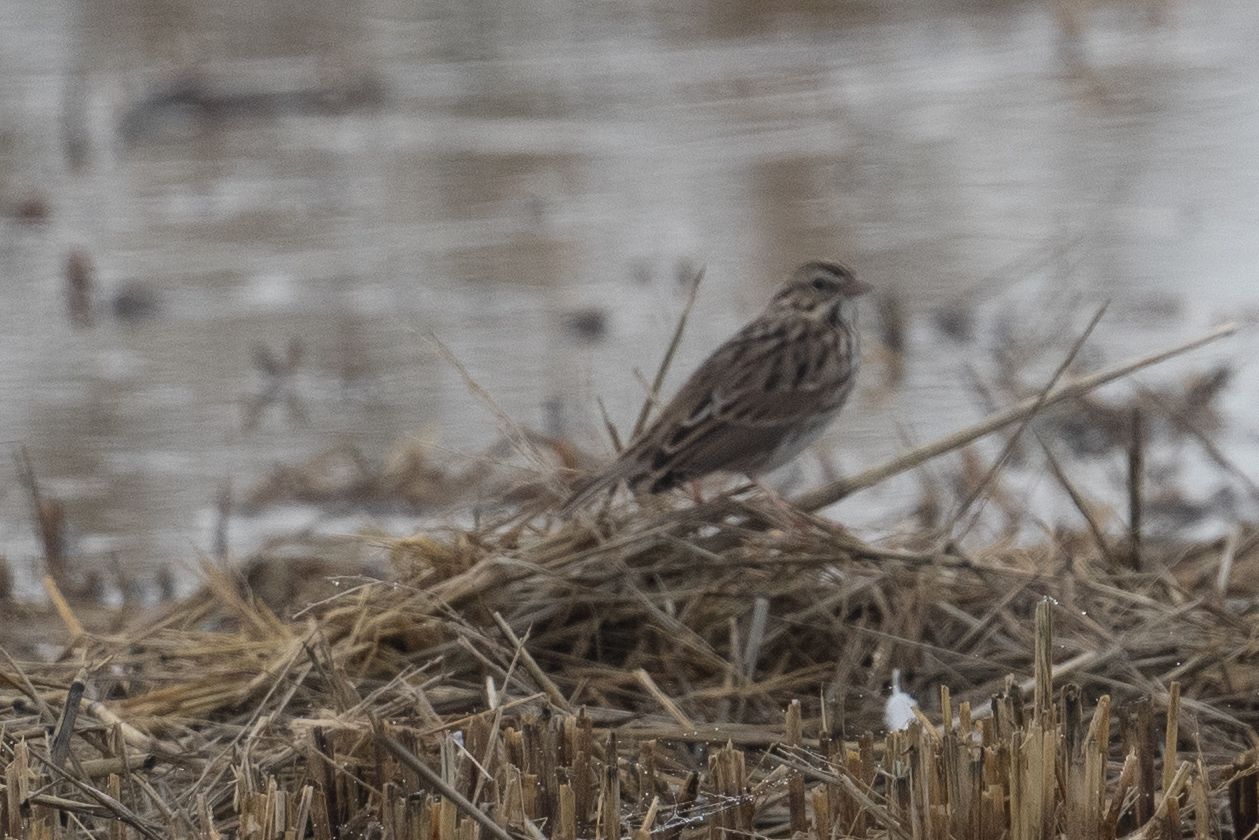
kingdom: Animalia
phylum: Chordata
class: Aves
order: Passeriformes
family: Passerellidae
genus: Passerculus
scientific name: Passerculus sandwichensis
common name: Savannah sparrow
